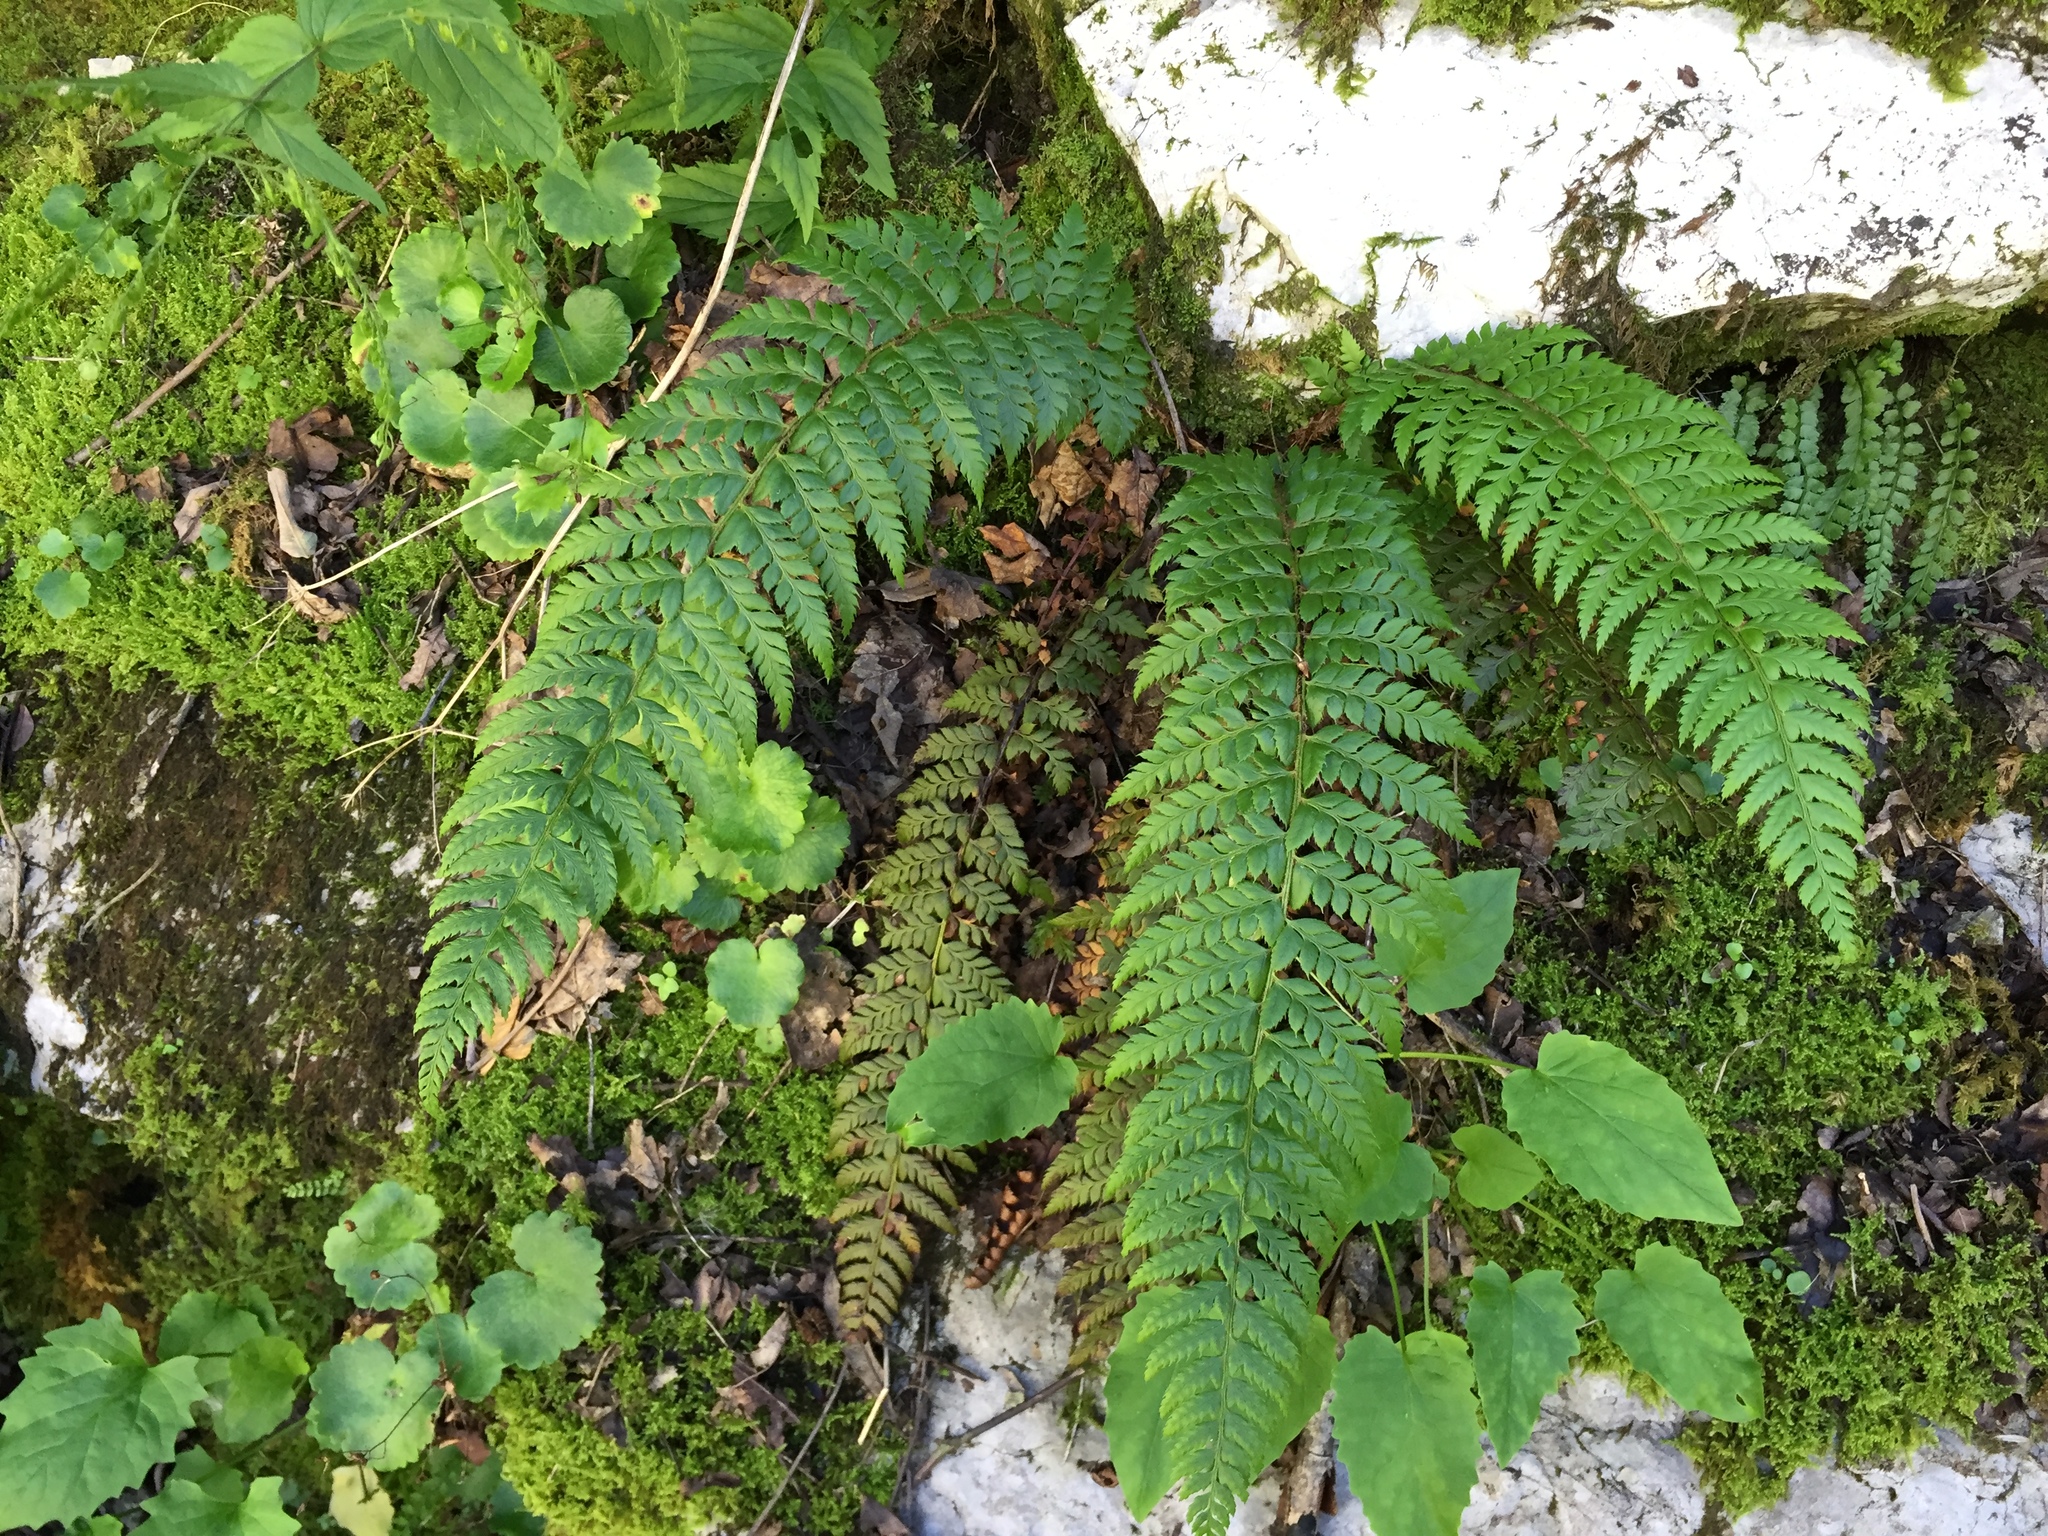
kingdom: Plantae
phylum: Tracheophyta
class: Polypodiopsida
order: Polypodiales
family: Dryopteridaceae
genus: Polystichum
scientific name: Polystichum aculeatum
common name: Hard shield-fern
